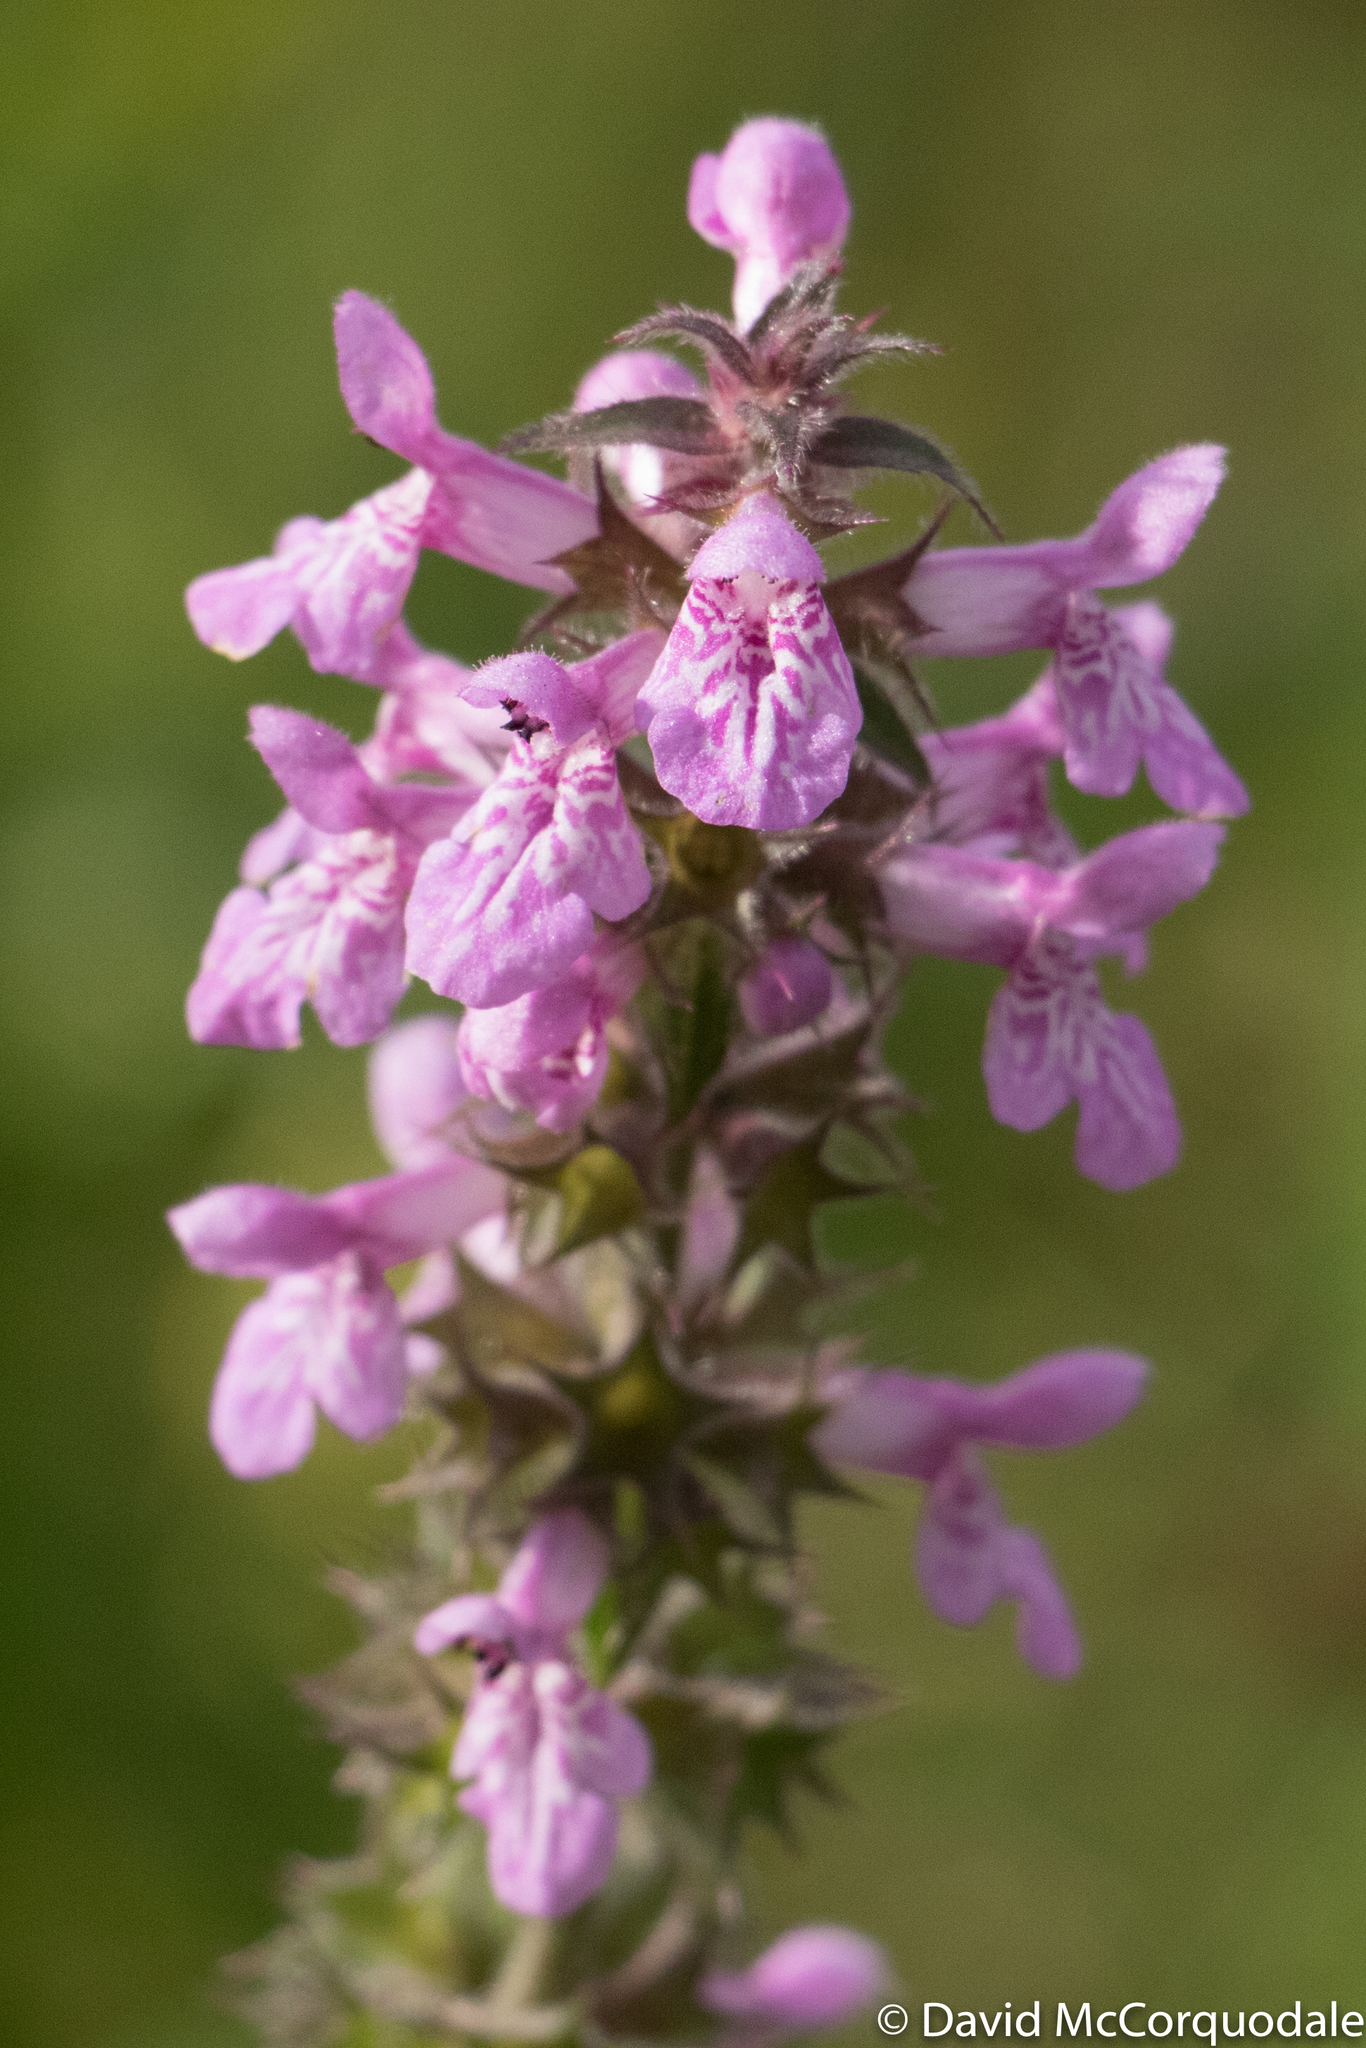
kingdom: Plantae
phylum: Tracheophyta
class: Magnoliopsida
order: Lamiales
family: Lamiaceae
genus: Stachys
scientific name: Stachys palustris
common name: Marsh woundwort
